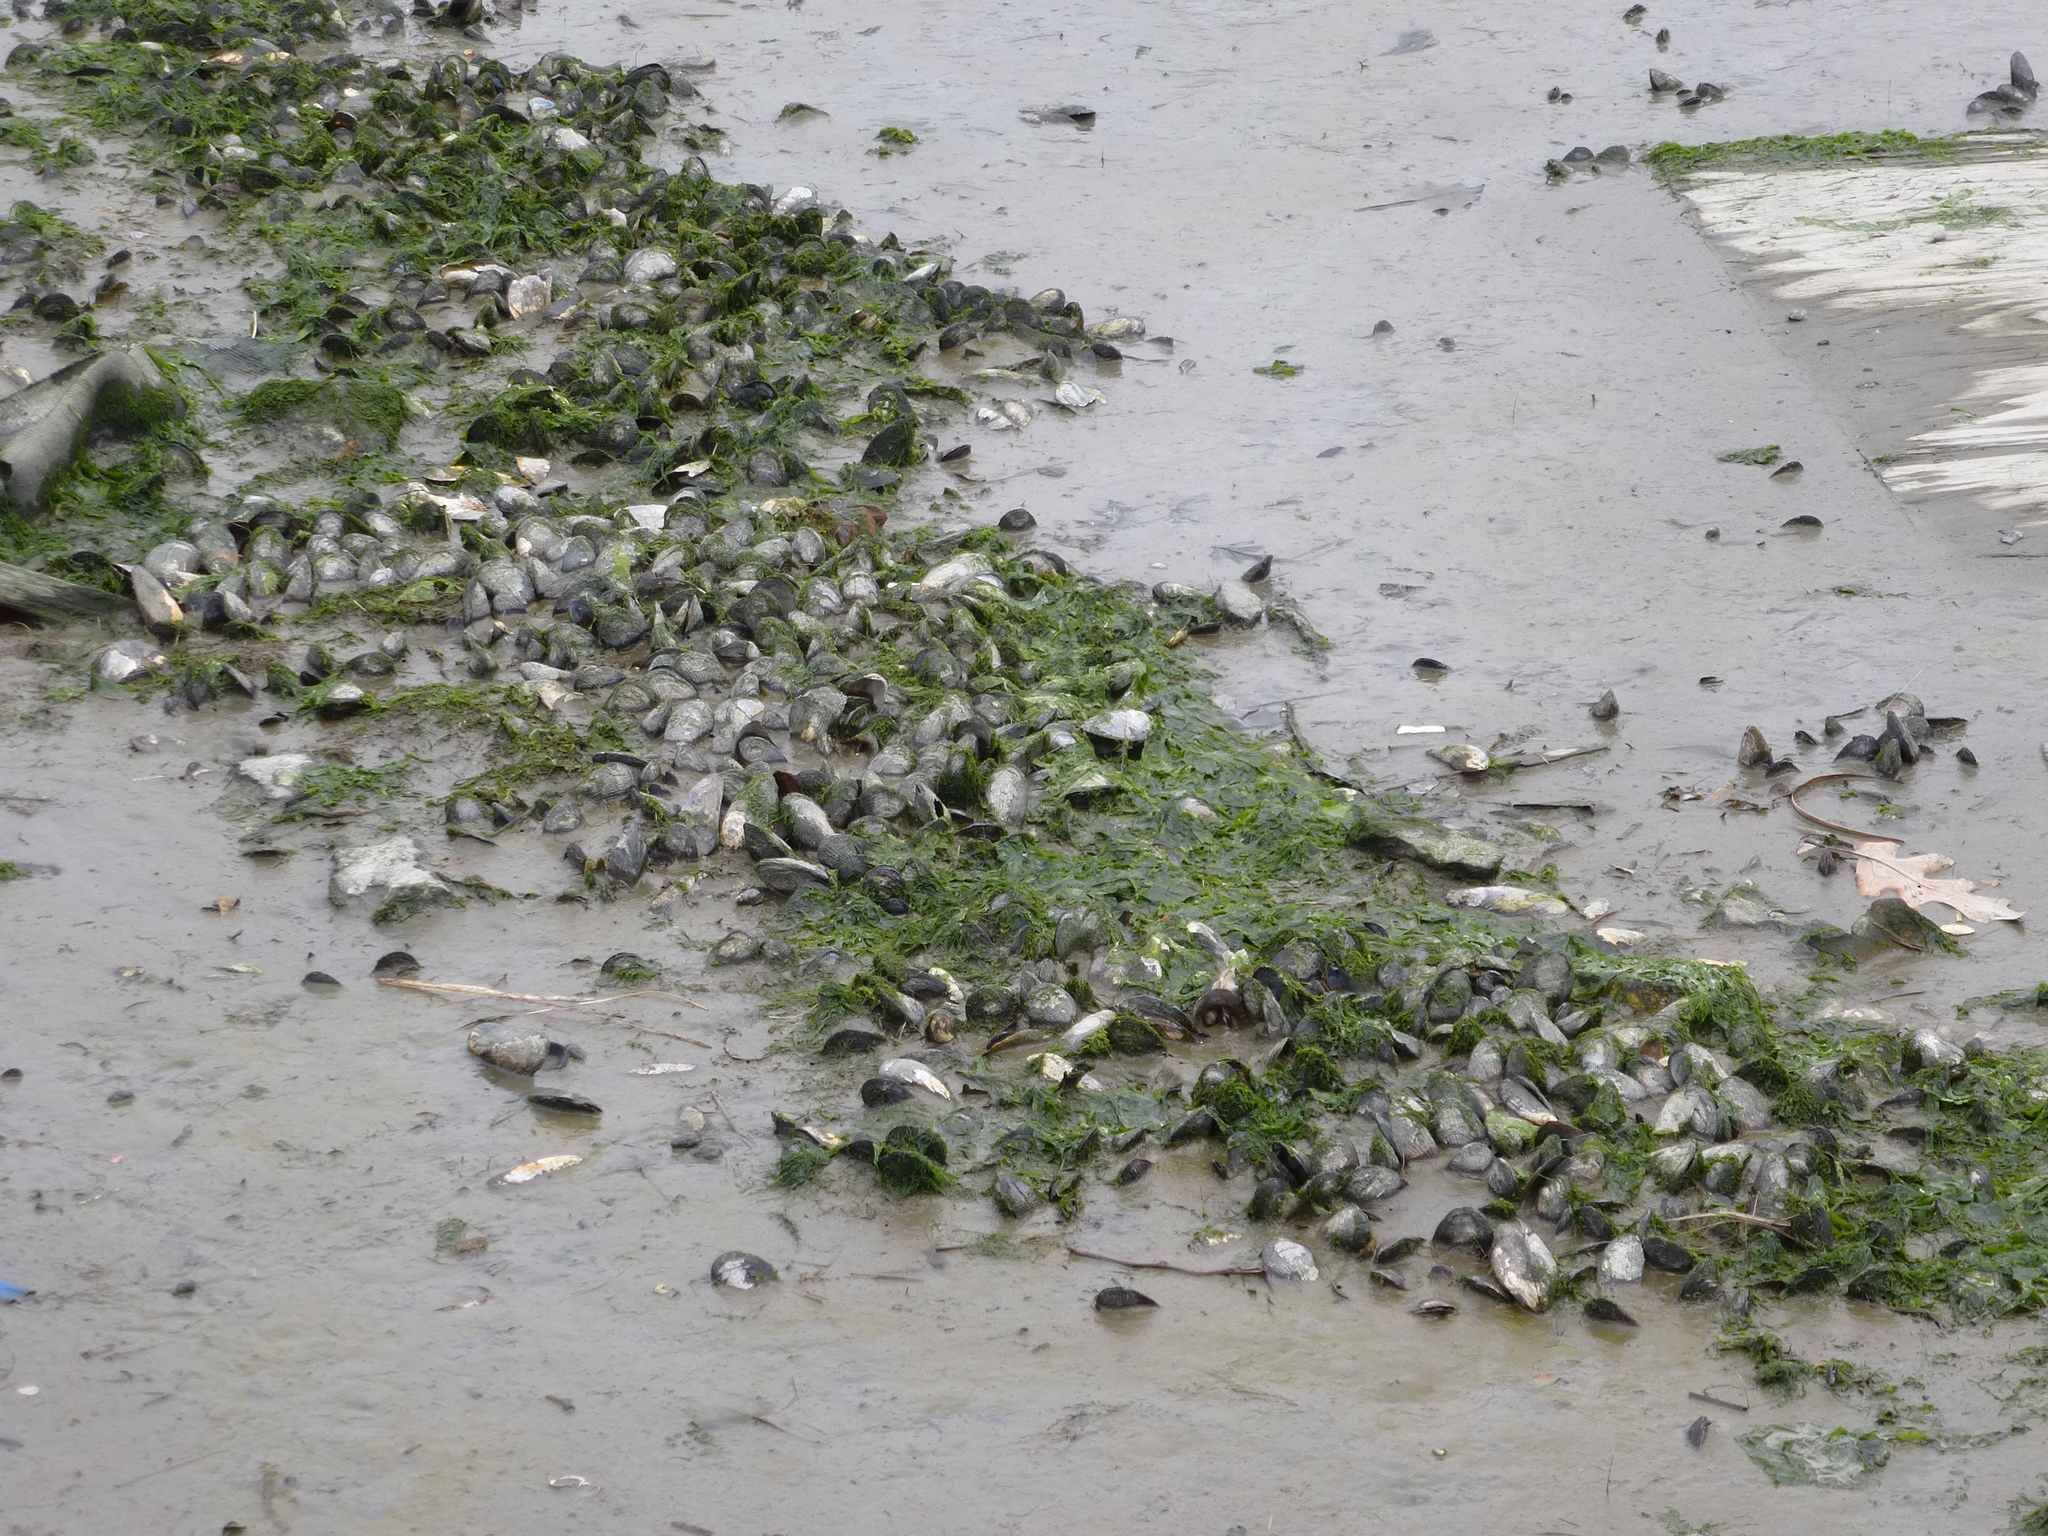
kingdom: Animalia
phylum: Mollusca
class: Bivalvia
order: Mytilida
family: Mytilidae
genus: Geukensia
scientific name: Geukensia demissa
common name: Ribbed mussel
